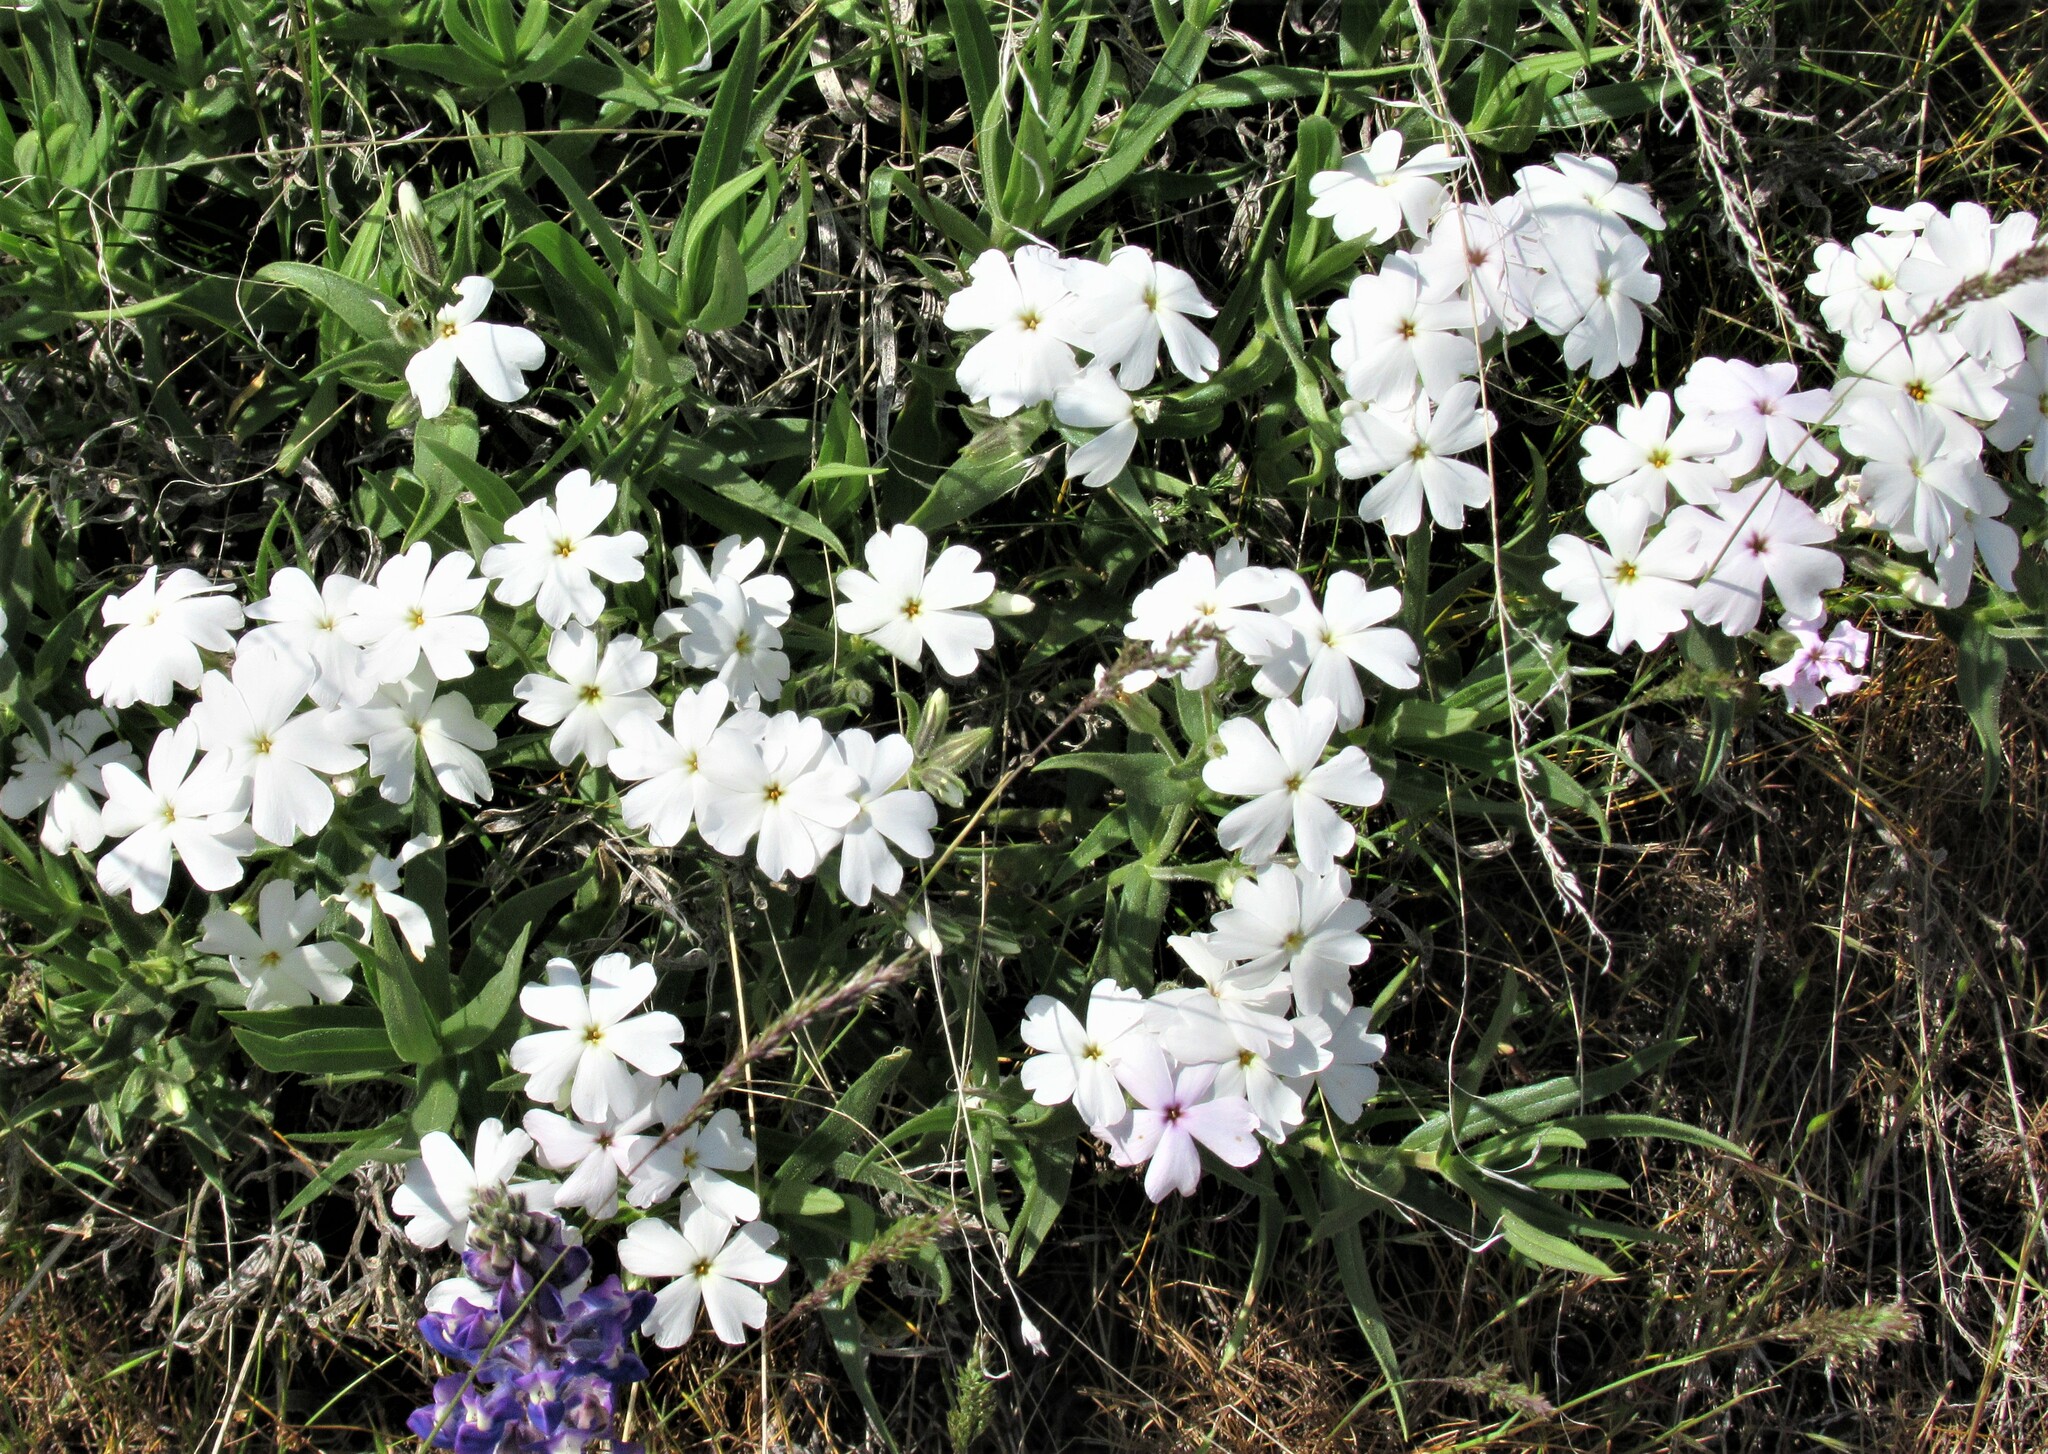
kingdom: Plantae
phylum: Tracheophyta
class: Magnoliopsida
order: Ericales
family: Polemoniaceae
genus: Phlox
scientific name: Phlox speciosa
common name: Bush phlox
